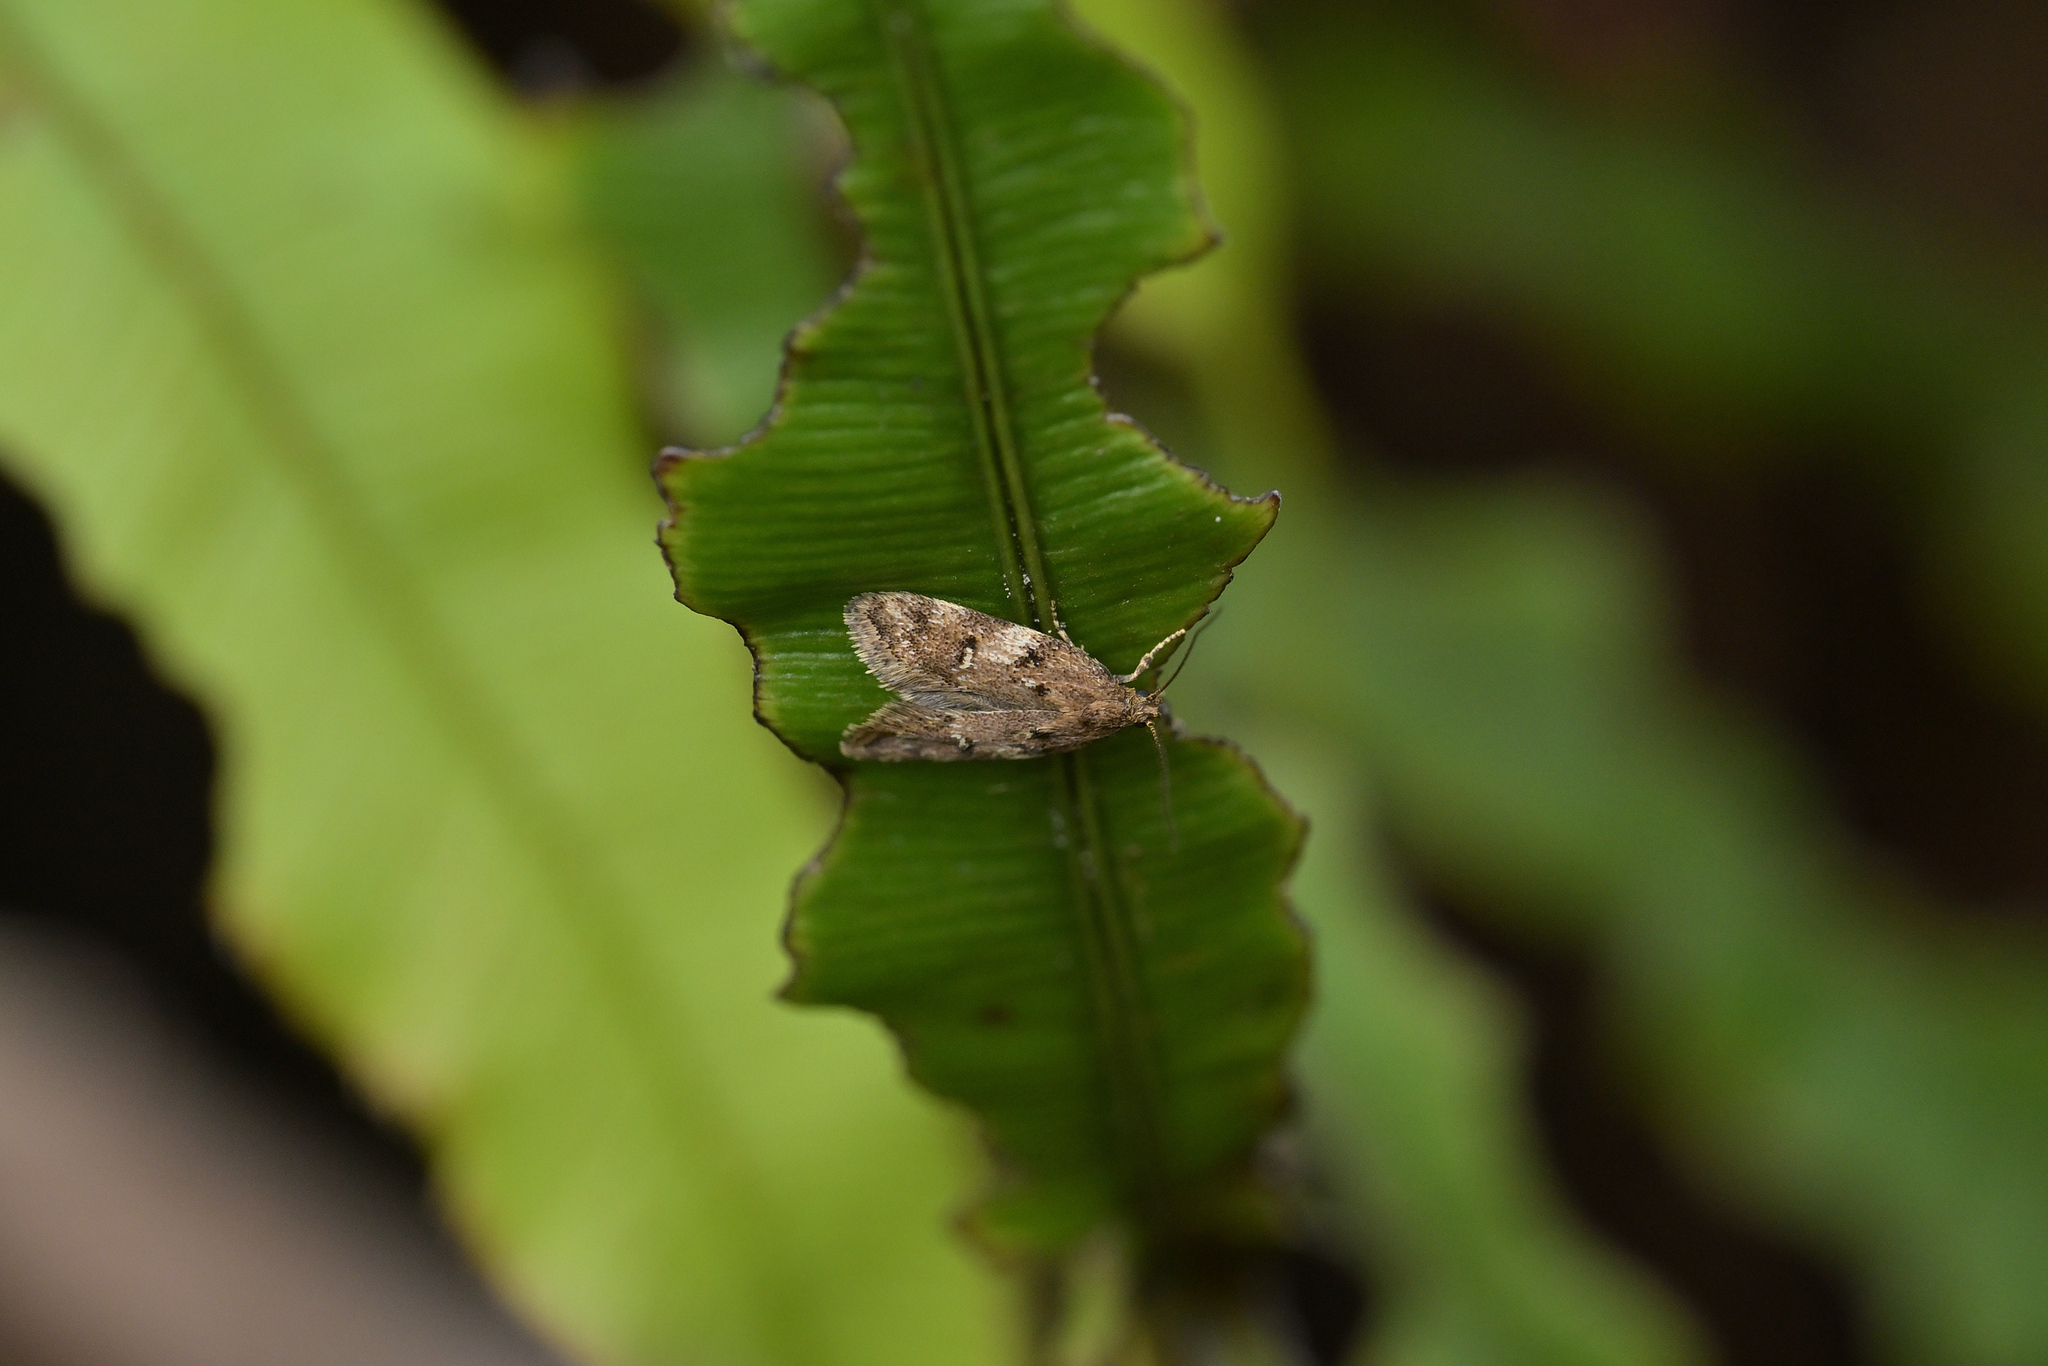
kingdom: Animalia
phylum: Arthropoda
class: Insecta
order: Lepidoptera
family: Oecophoridae
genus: Tingena
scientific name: Tingena fenestrata
